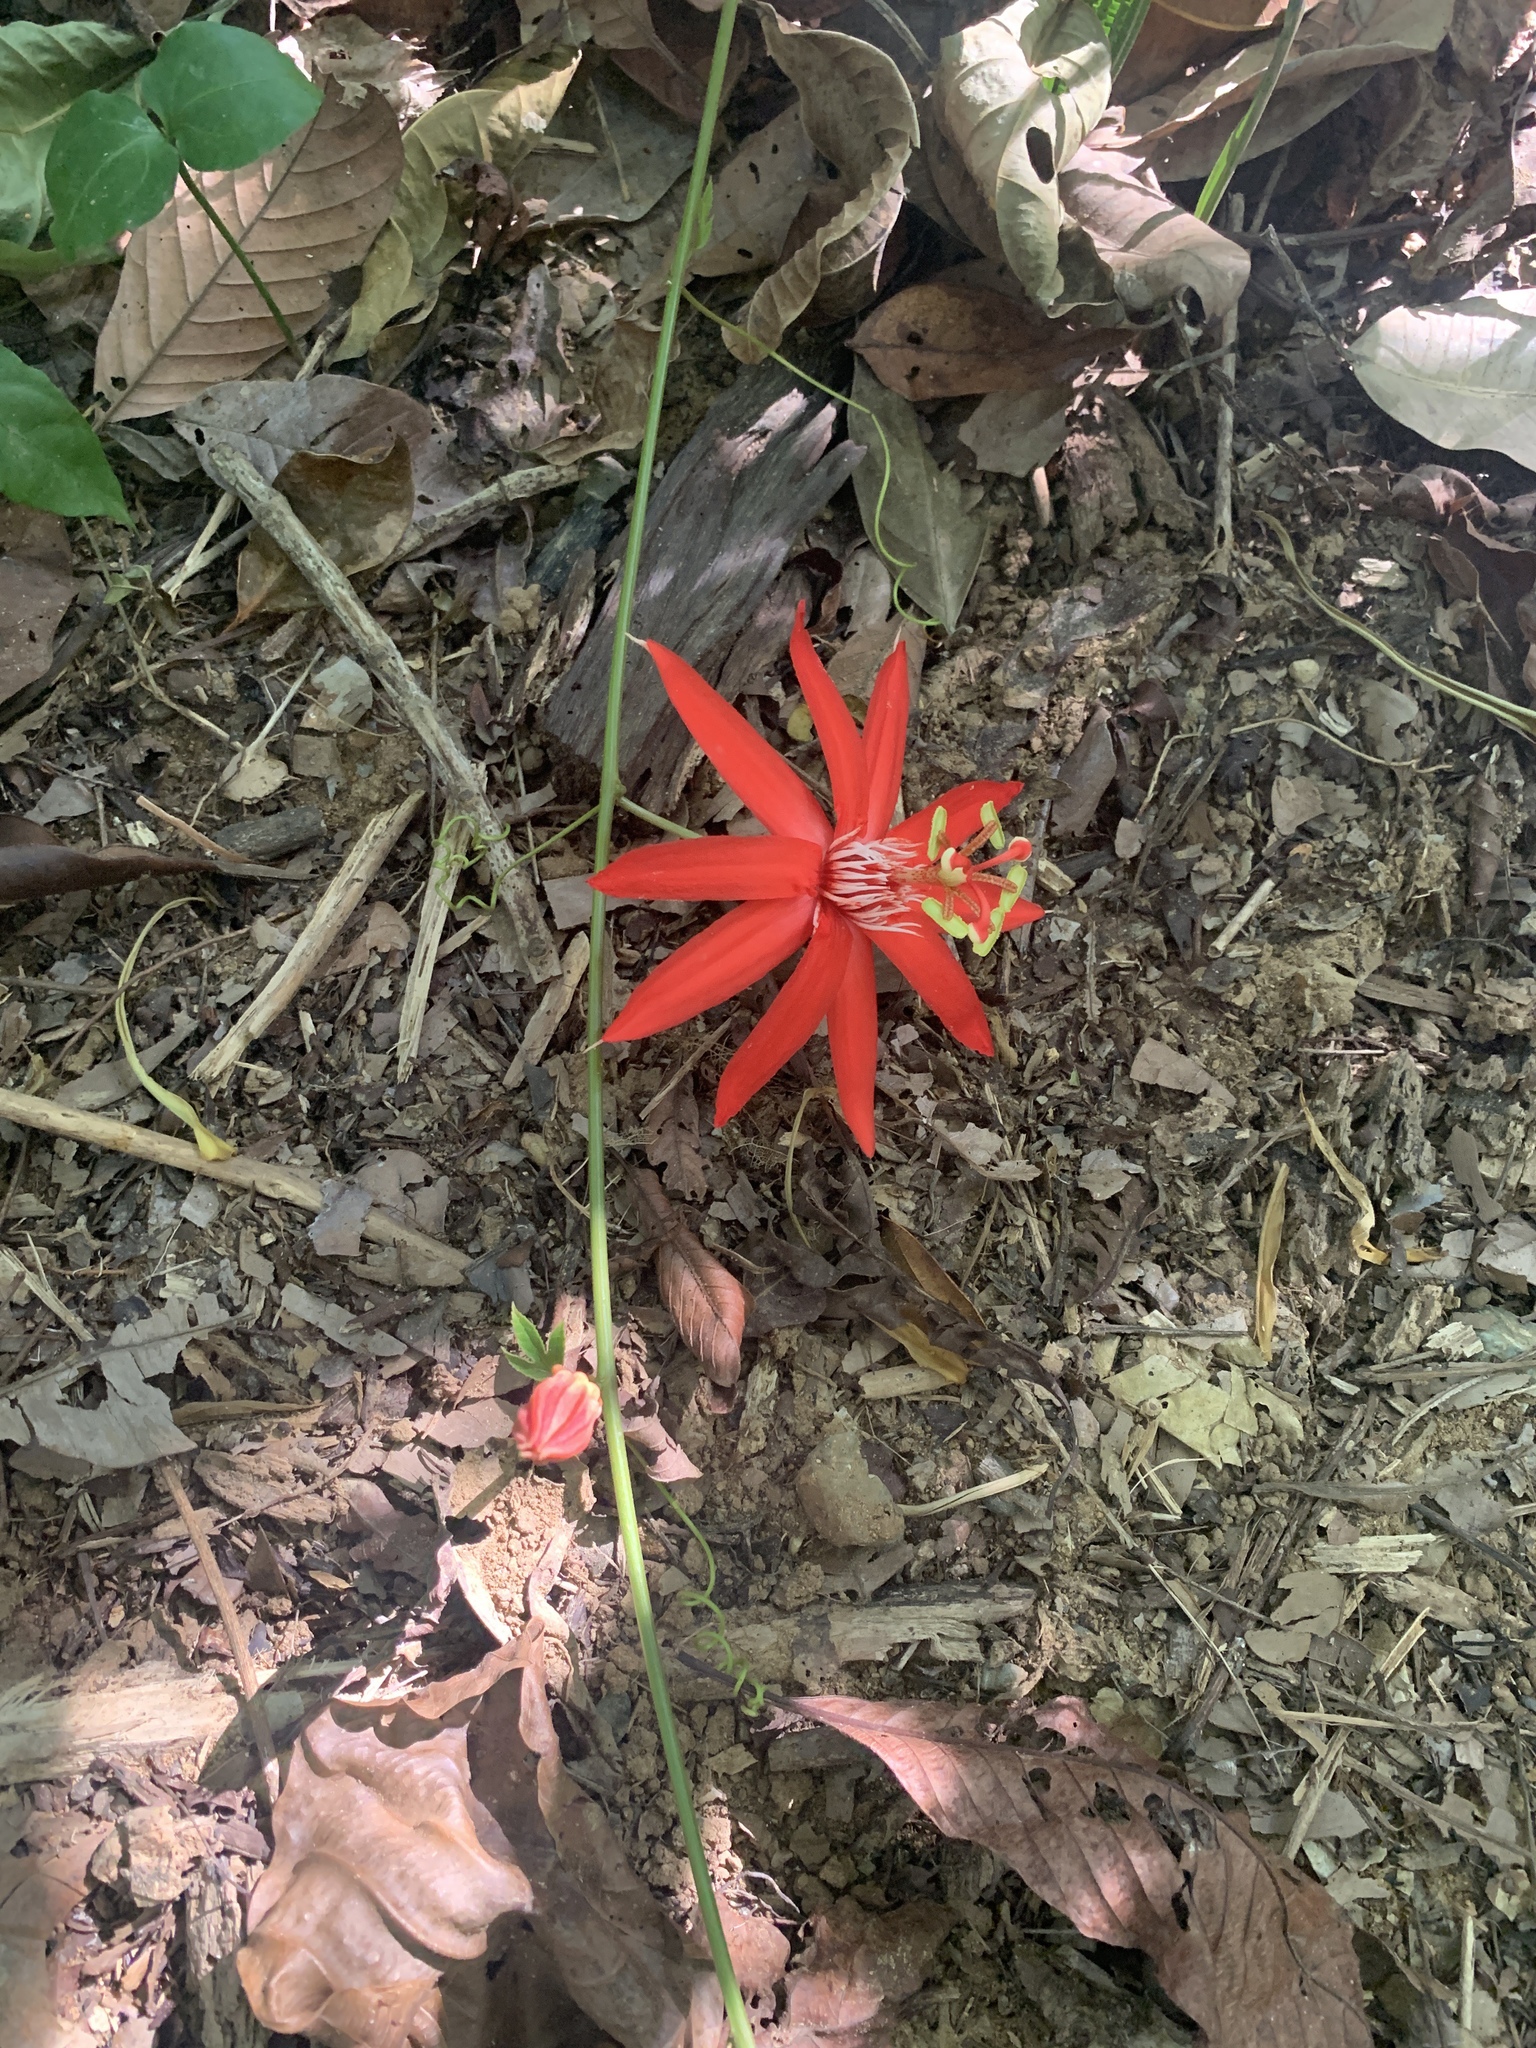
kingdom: Plantae
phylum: Tracheophyta
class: Magnoliopsida
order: Malpighiales
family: Passifloraceae
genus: Passiflora
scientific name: Passiflora vitifolia
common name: Perfumed passionflower
